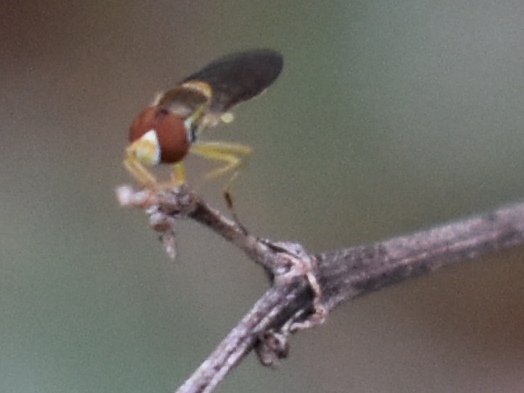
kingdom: Animalia
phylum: Arthropoda
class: Insecta
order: Diptera
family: Syrphidae
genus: Toxomerus
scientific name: Toxomerus marginatus
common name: Syrphid fly
